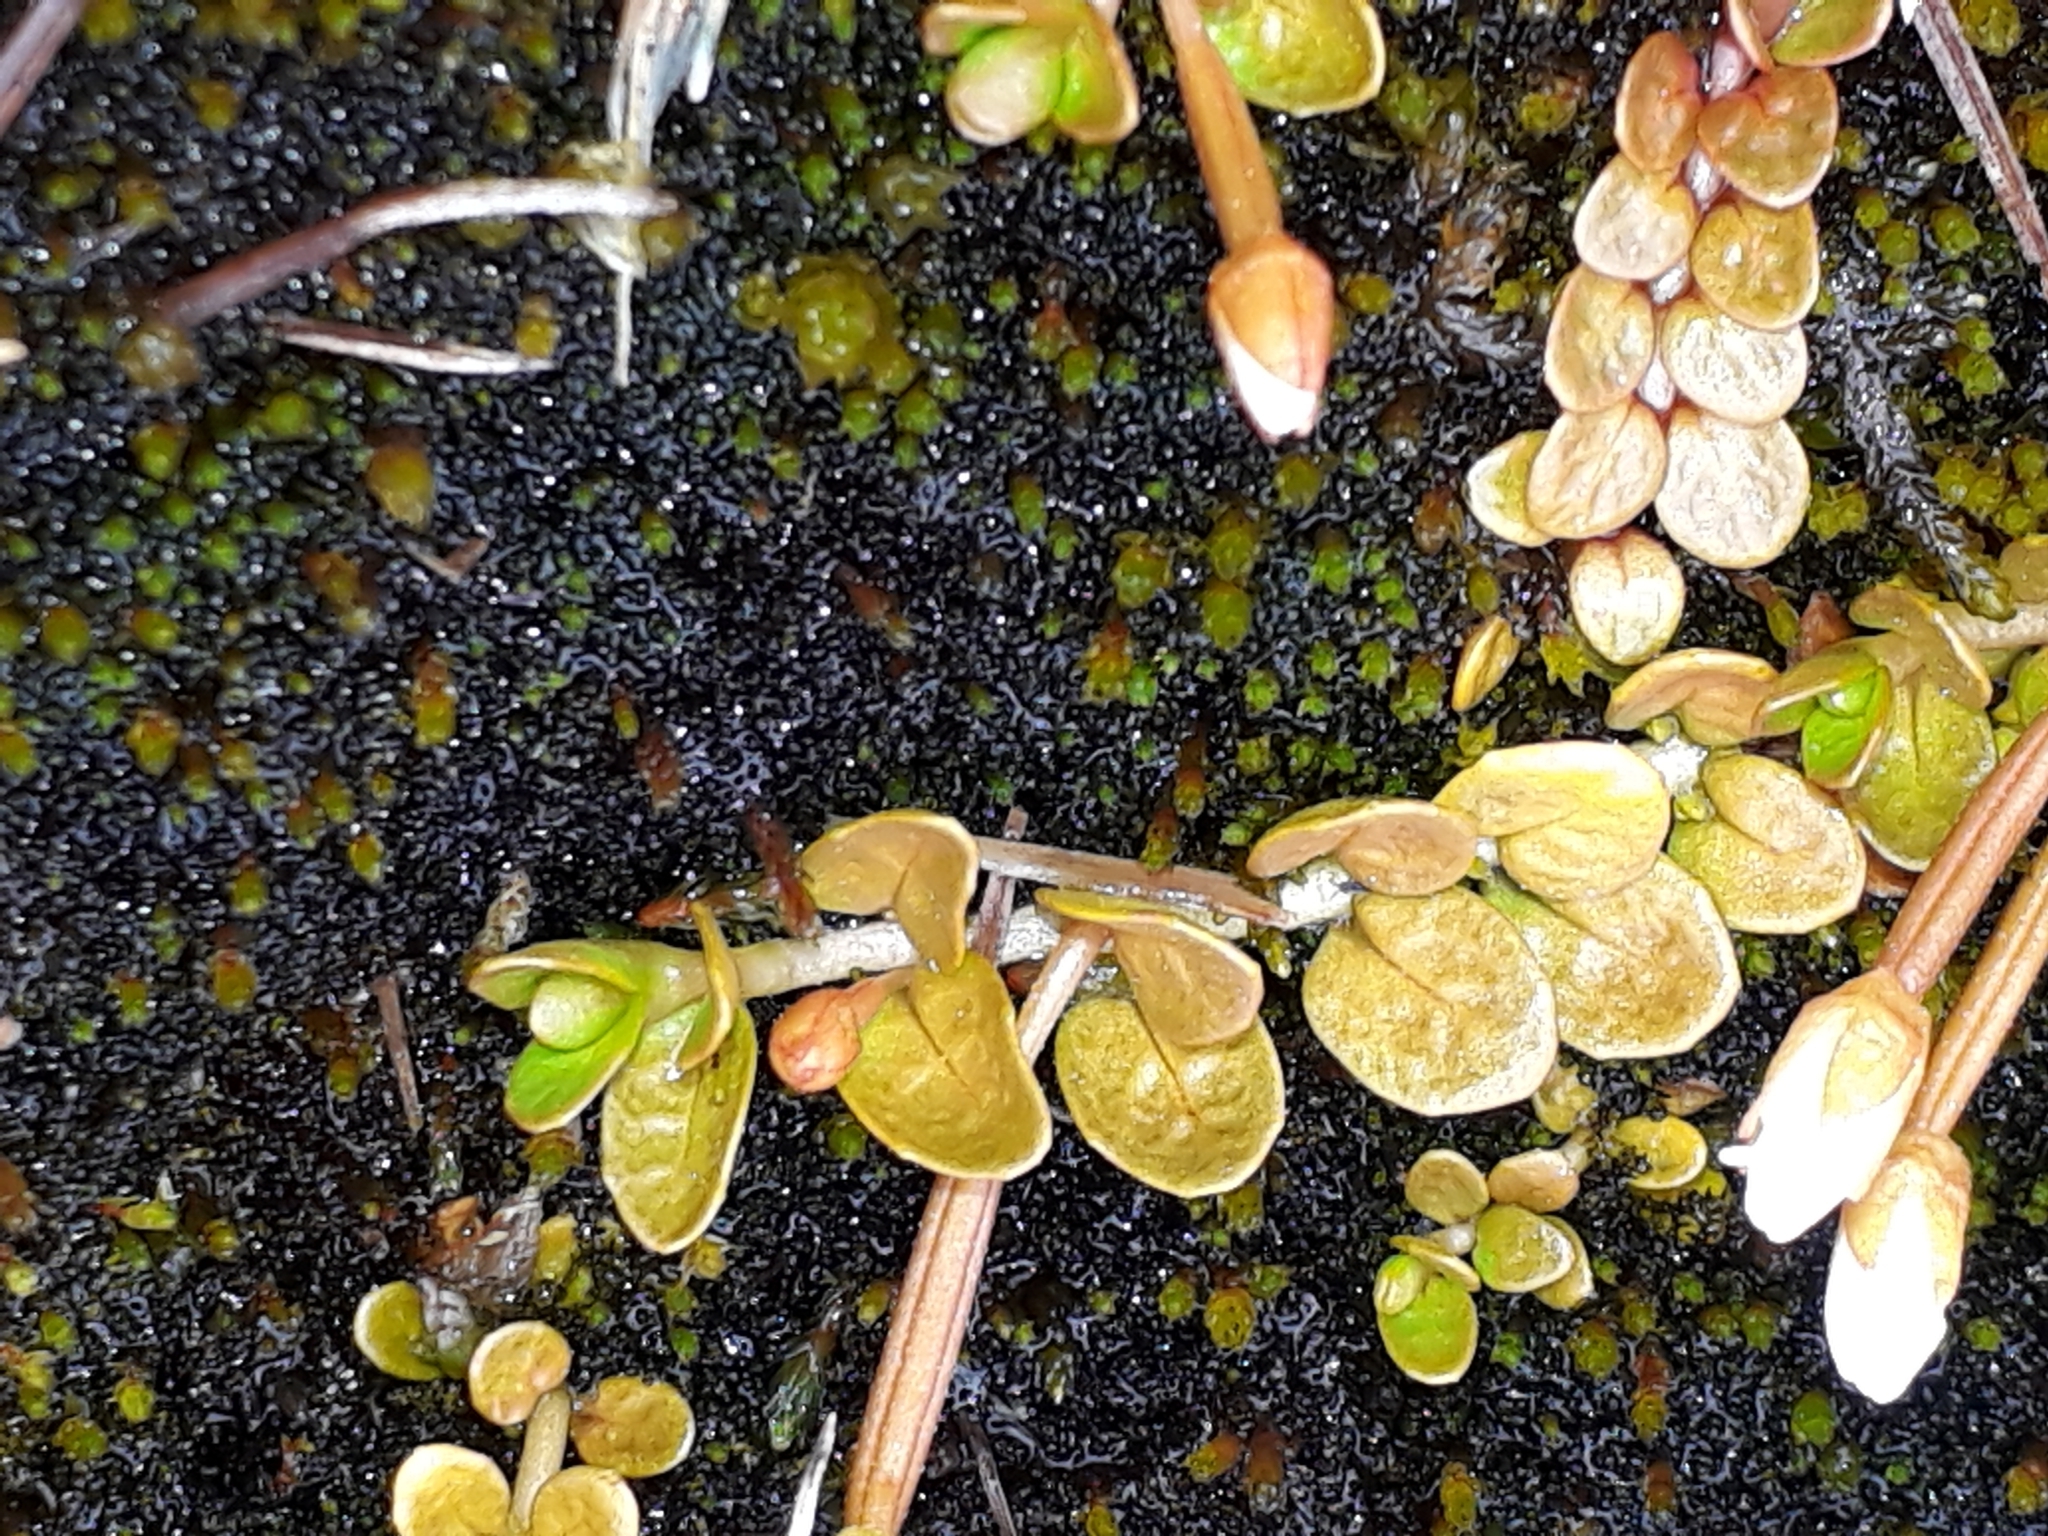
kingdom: Plantae
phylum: Tracheophyta
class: Magnoliopsida
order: Myrtales
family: Onagraceae
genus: Epilobium
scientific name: Epilobium komarovianum
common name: Bronzy willowherb
